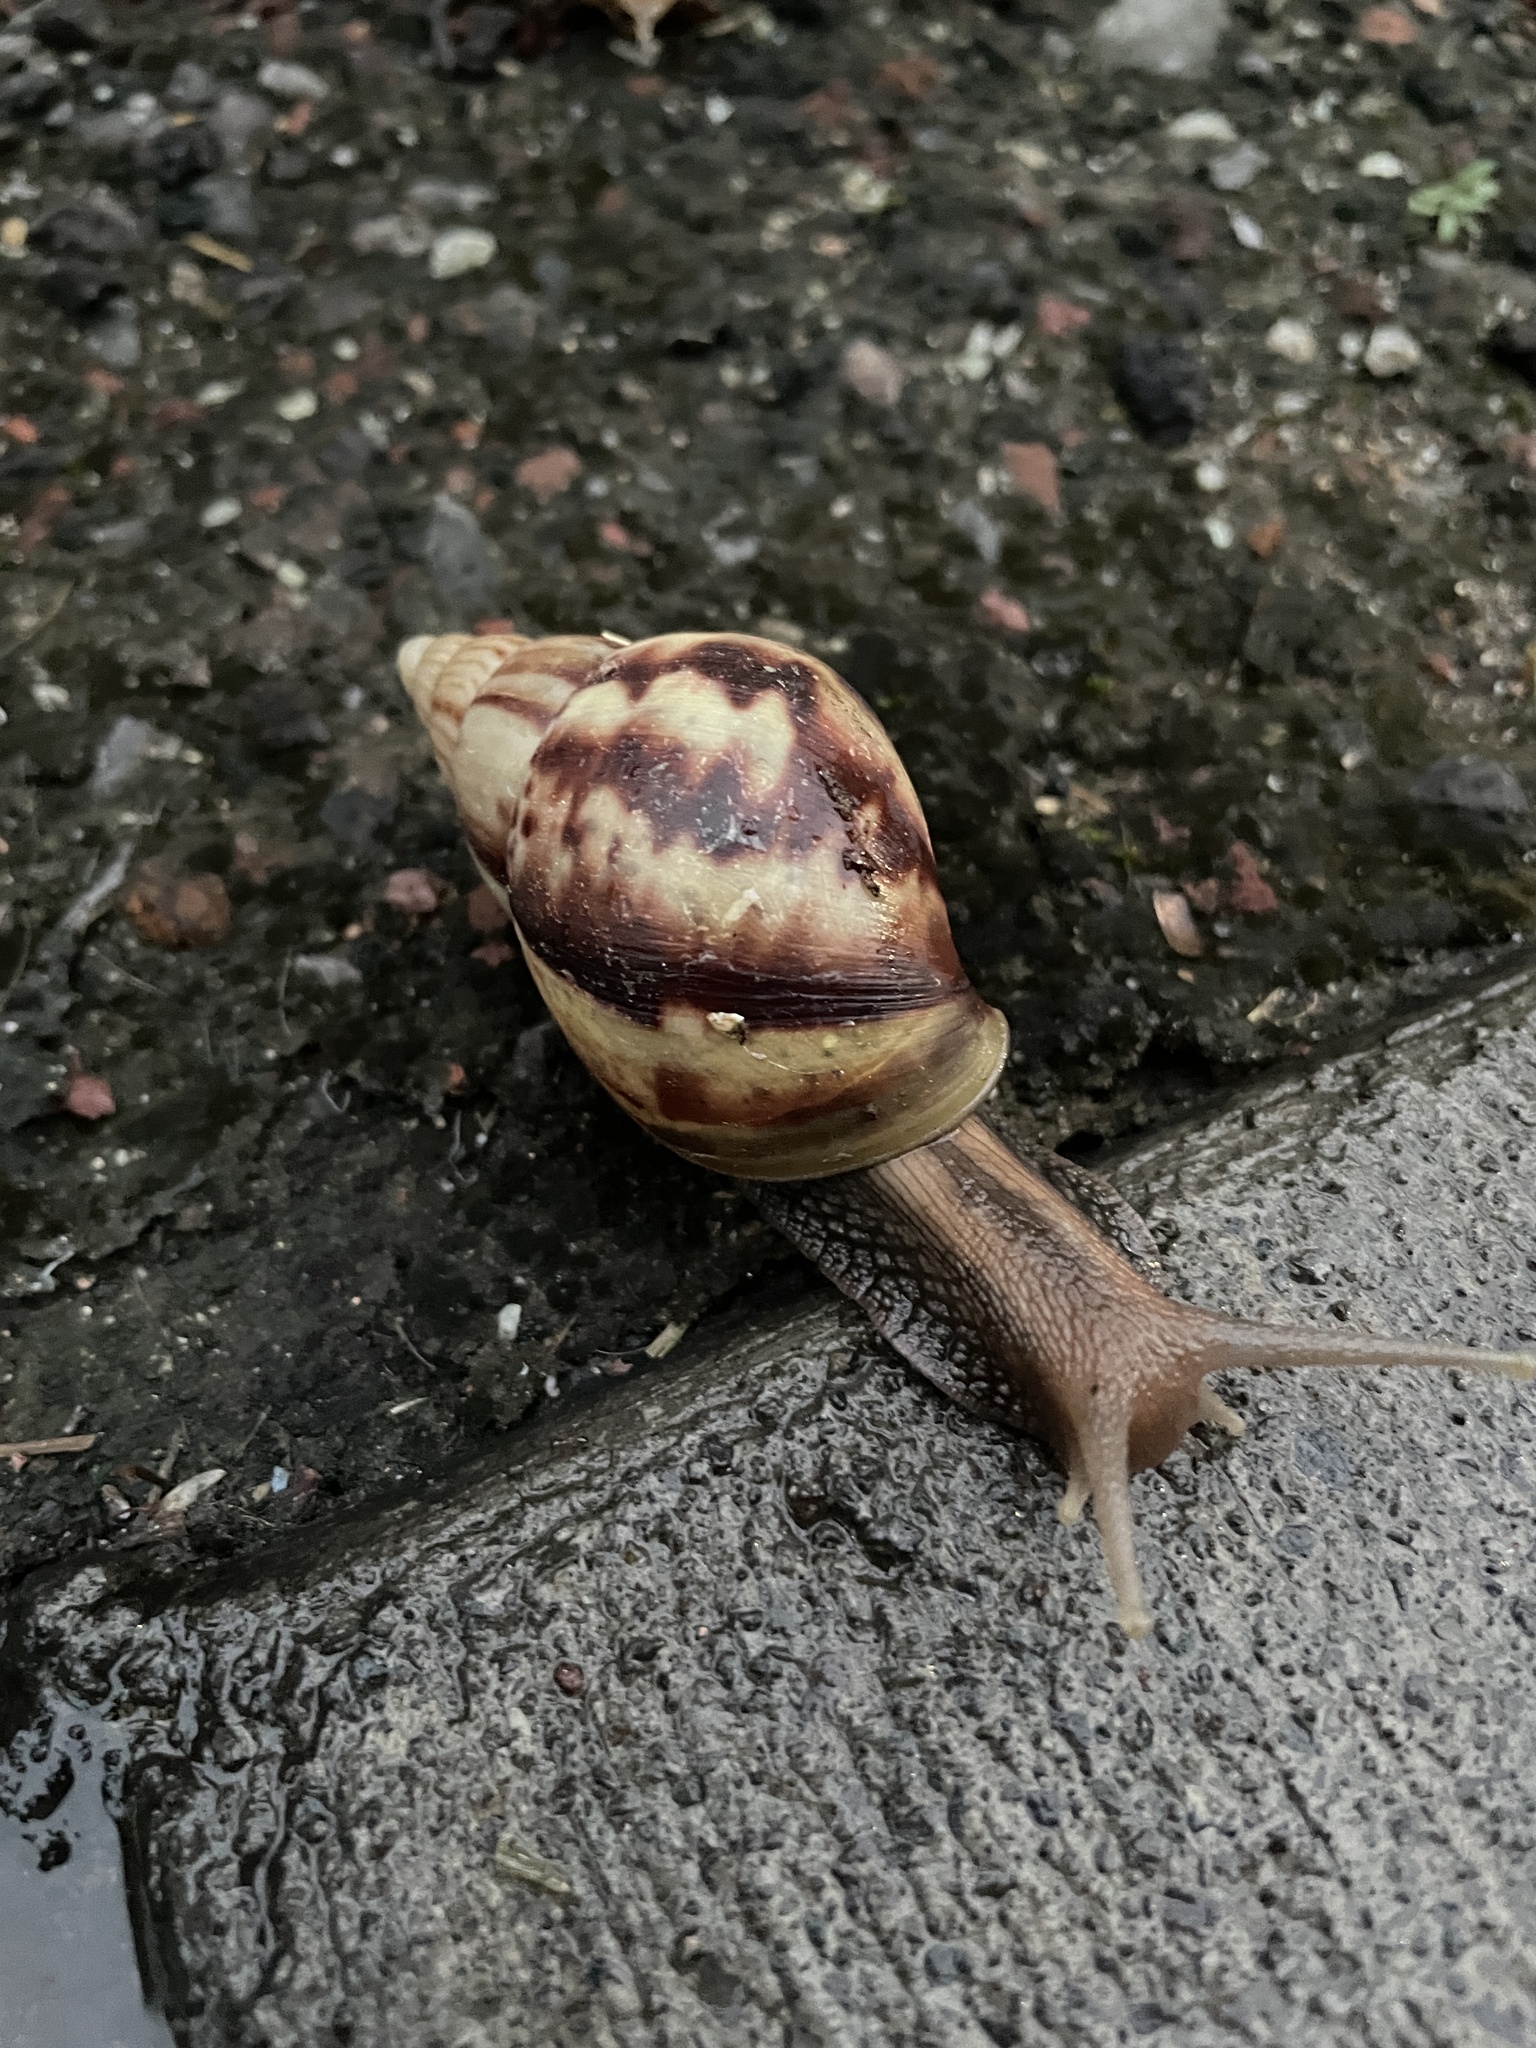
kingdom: Animalia
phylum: Mollusca
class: Gastropoda
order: Stylommatophora
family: Achatinidae
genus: Lissachatina
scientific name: Lissachatina fulica
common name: Giant african snail
